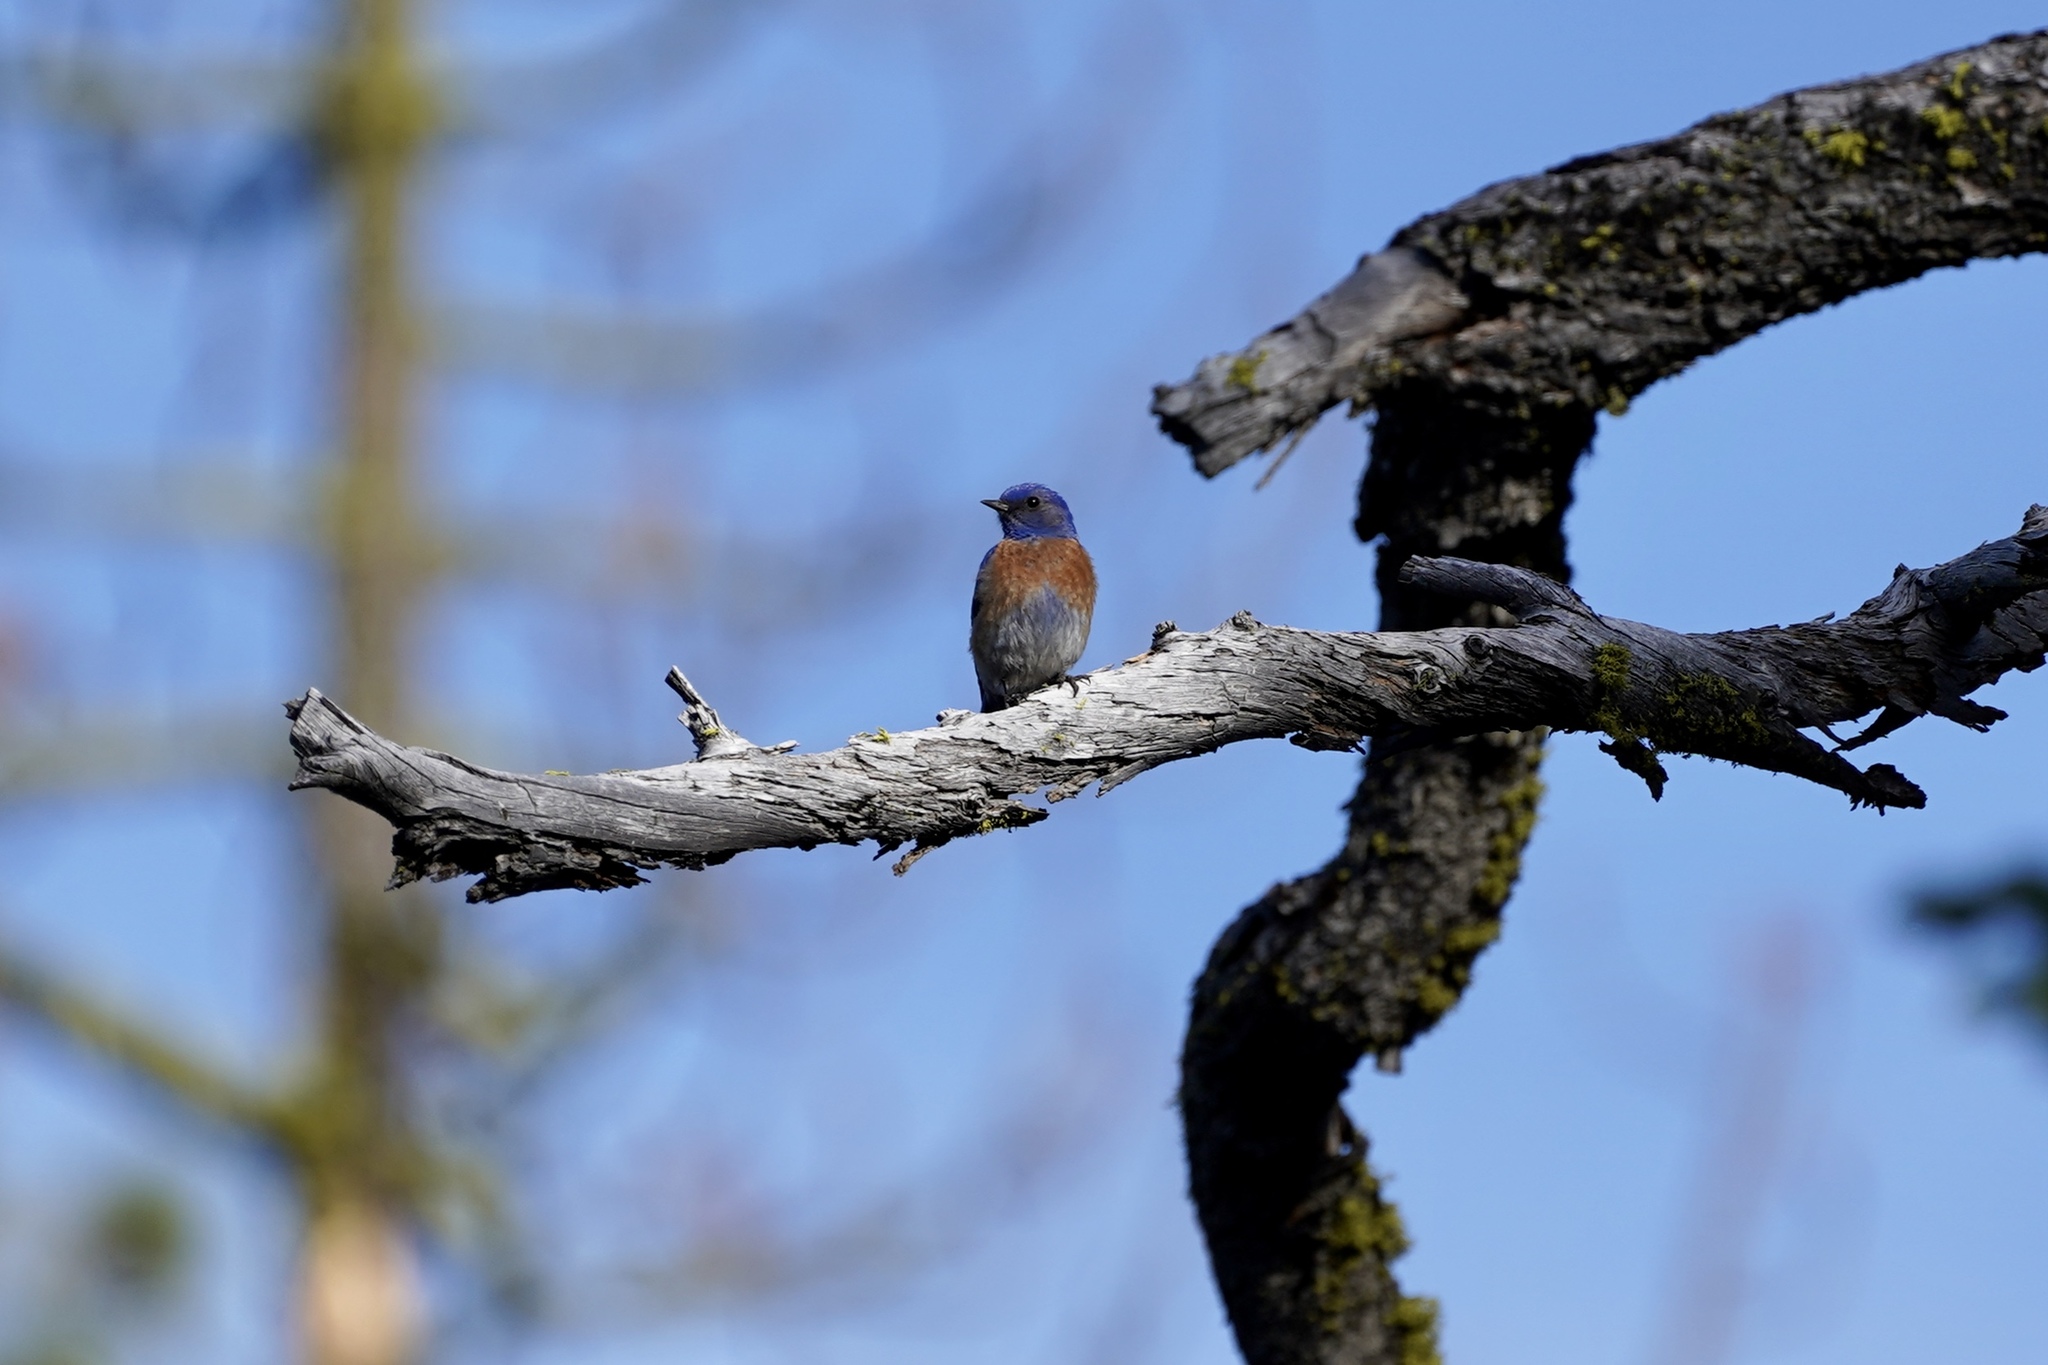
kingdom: Animalia
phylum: Chordata
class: Aves
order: Passeriformes
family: Turdidae
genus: Sialia
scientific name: Sialia mexicana
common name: Western bluebird
